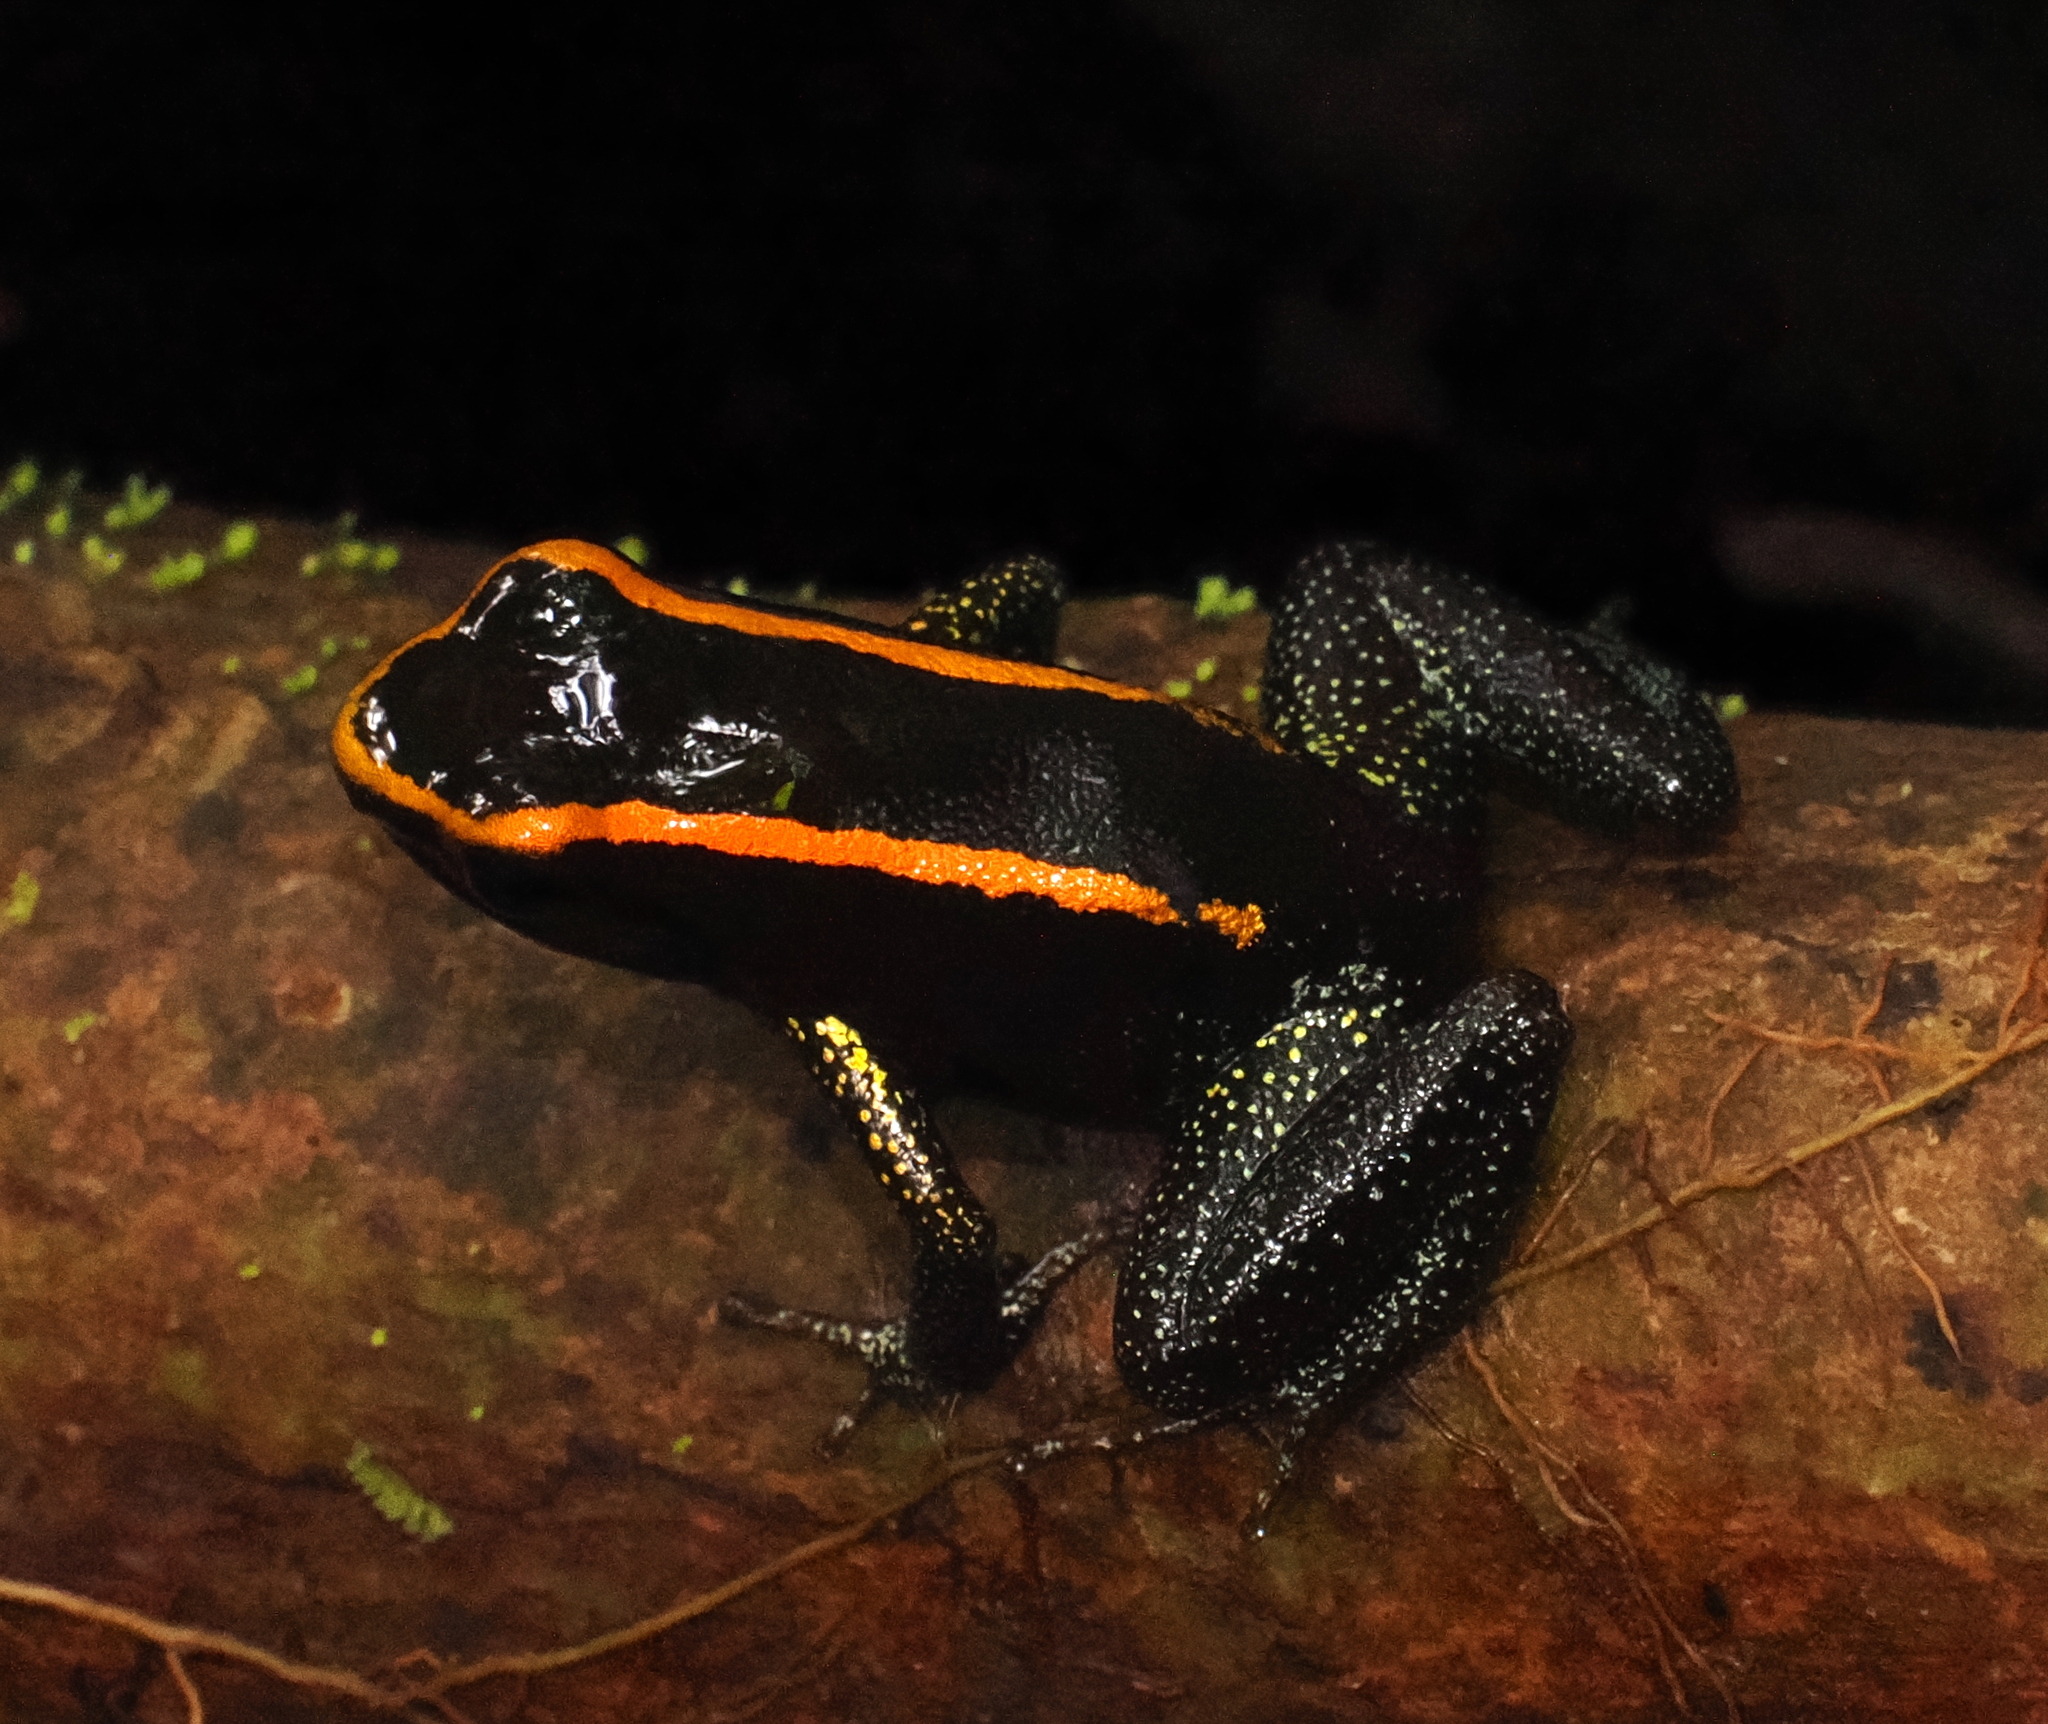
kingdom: Animalia
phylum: Chordata
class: Amphibia
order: Anura
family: Dendrobatidae
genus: Phyllobates
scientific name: Phyllobates aurotaenia
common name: Kokoe poison frog
